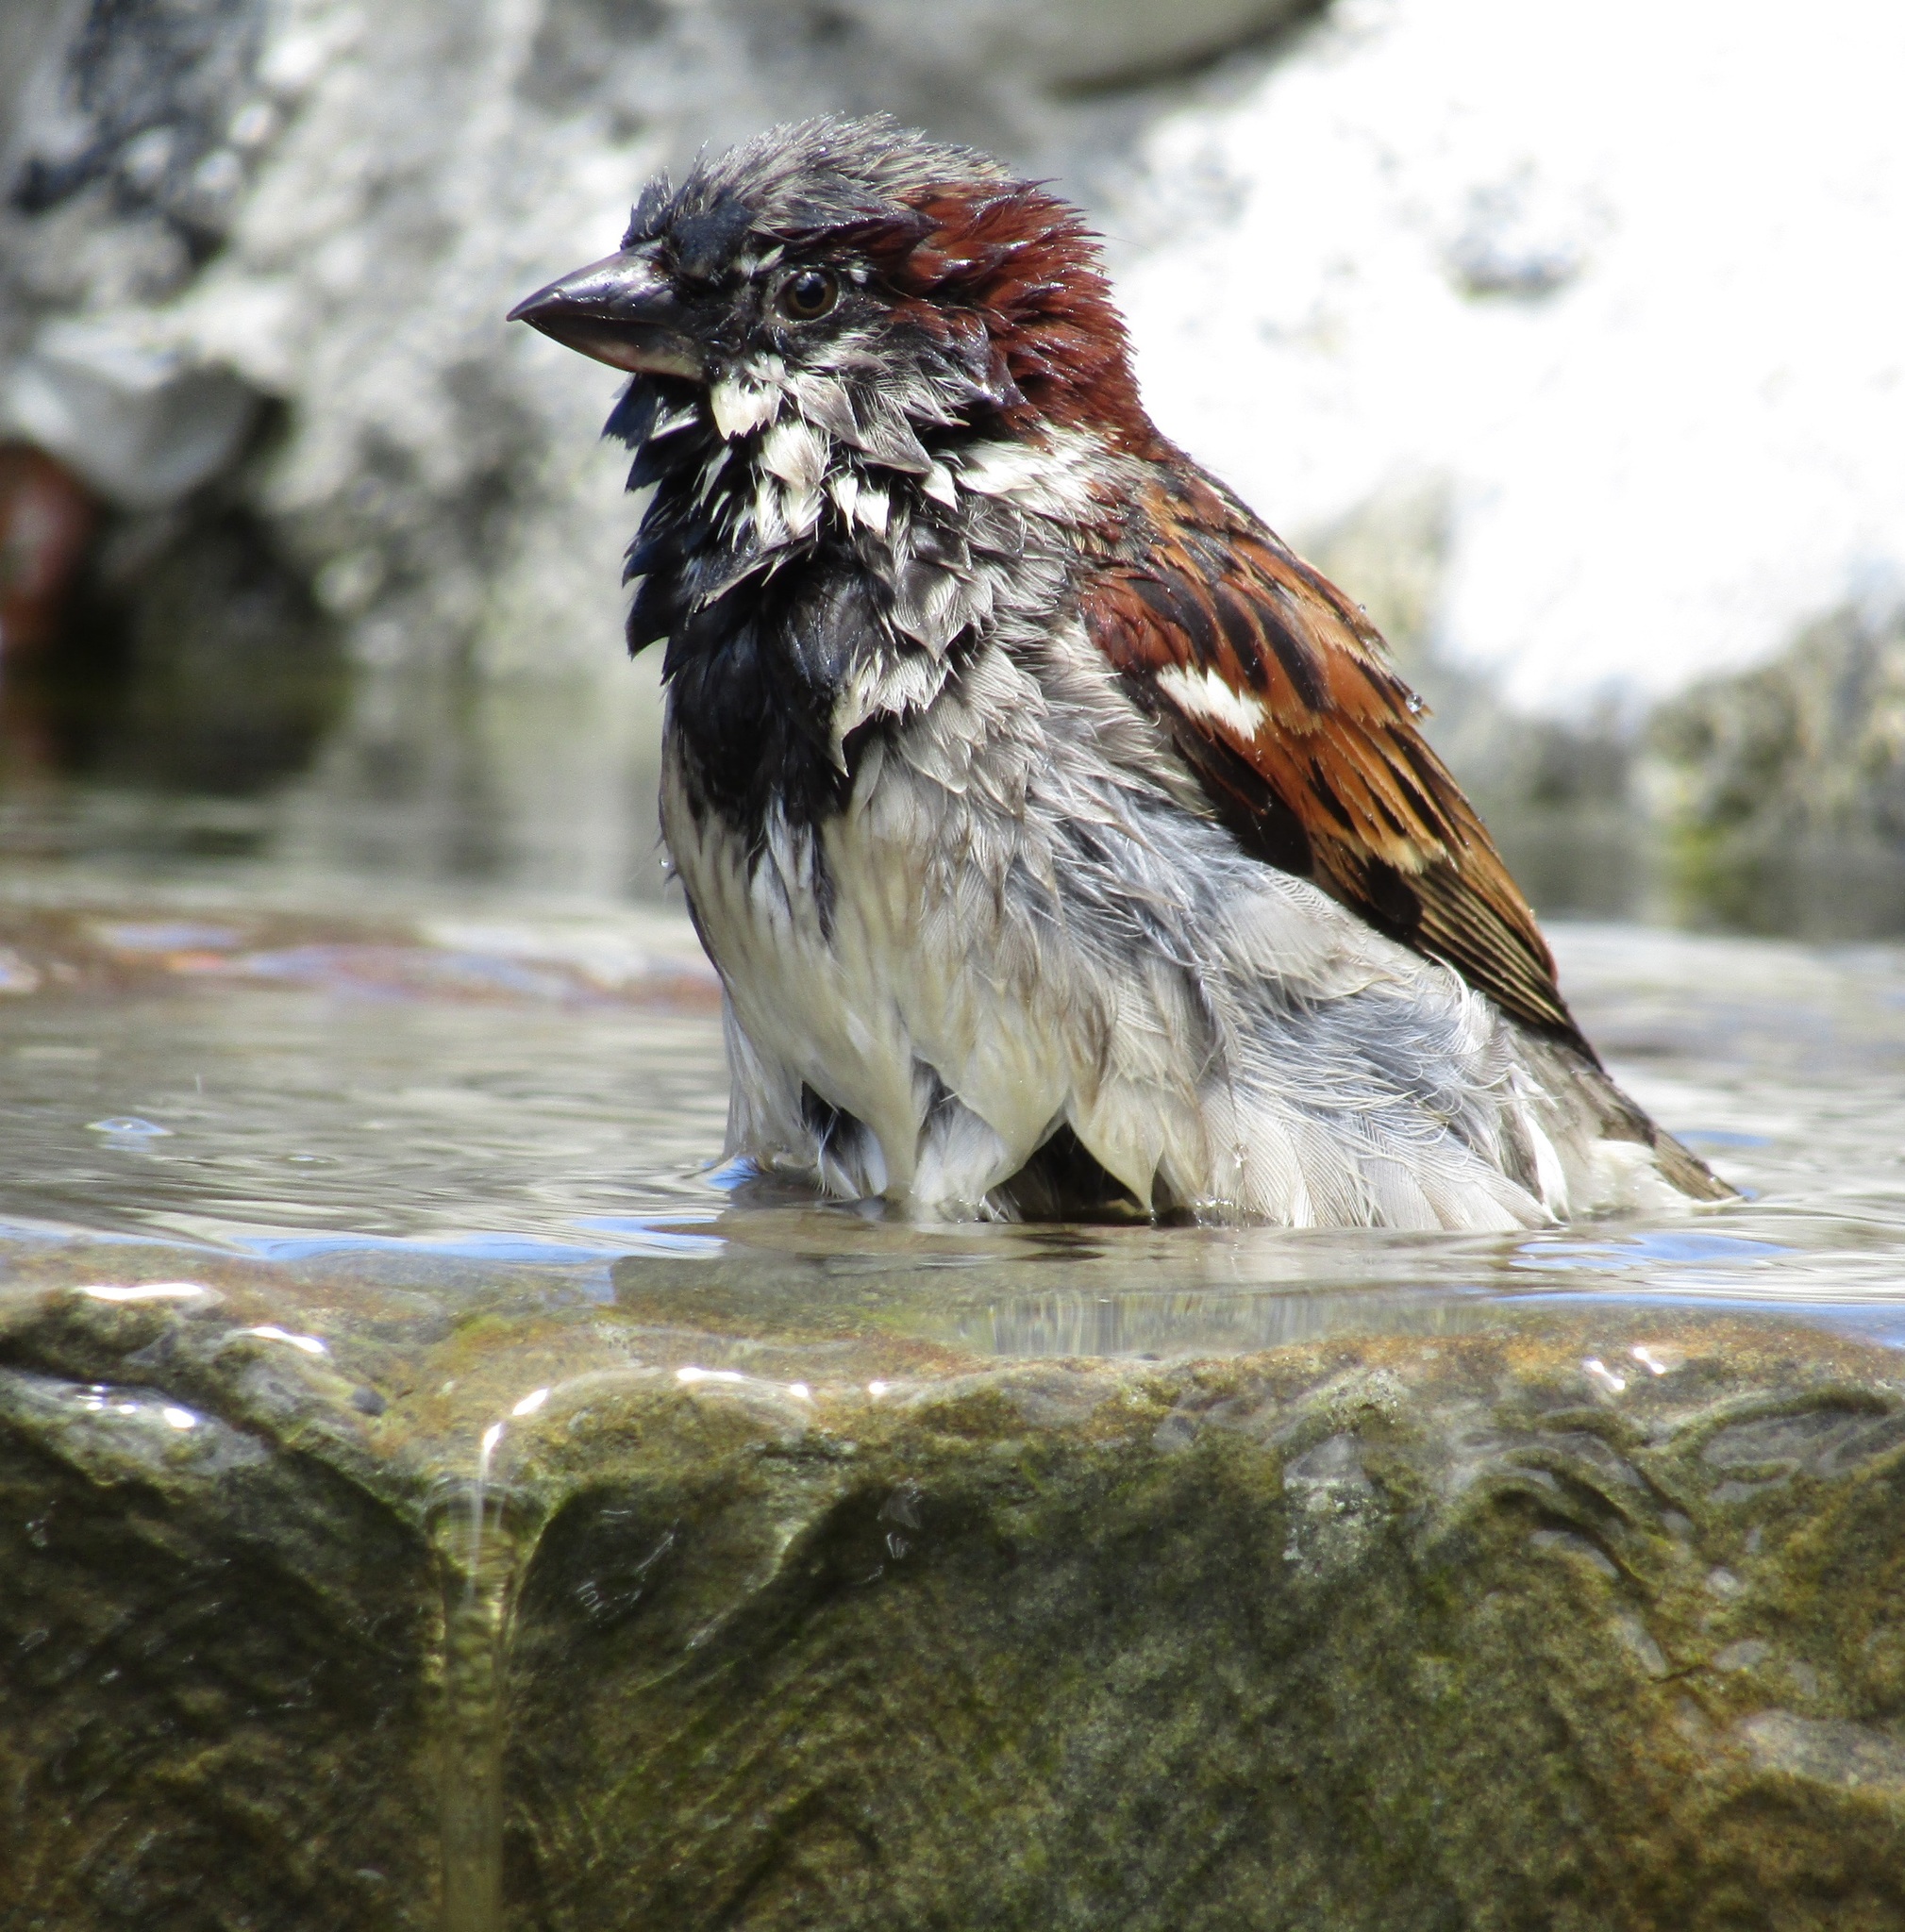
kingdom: Animalia
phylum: Chordata
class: Aves
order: Passeriformes
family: Passeridae
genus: Passer
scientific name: Passer domesticus
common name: House sparrow
